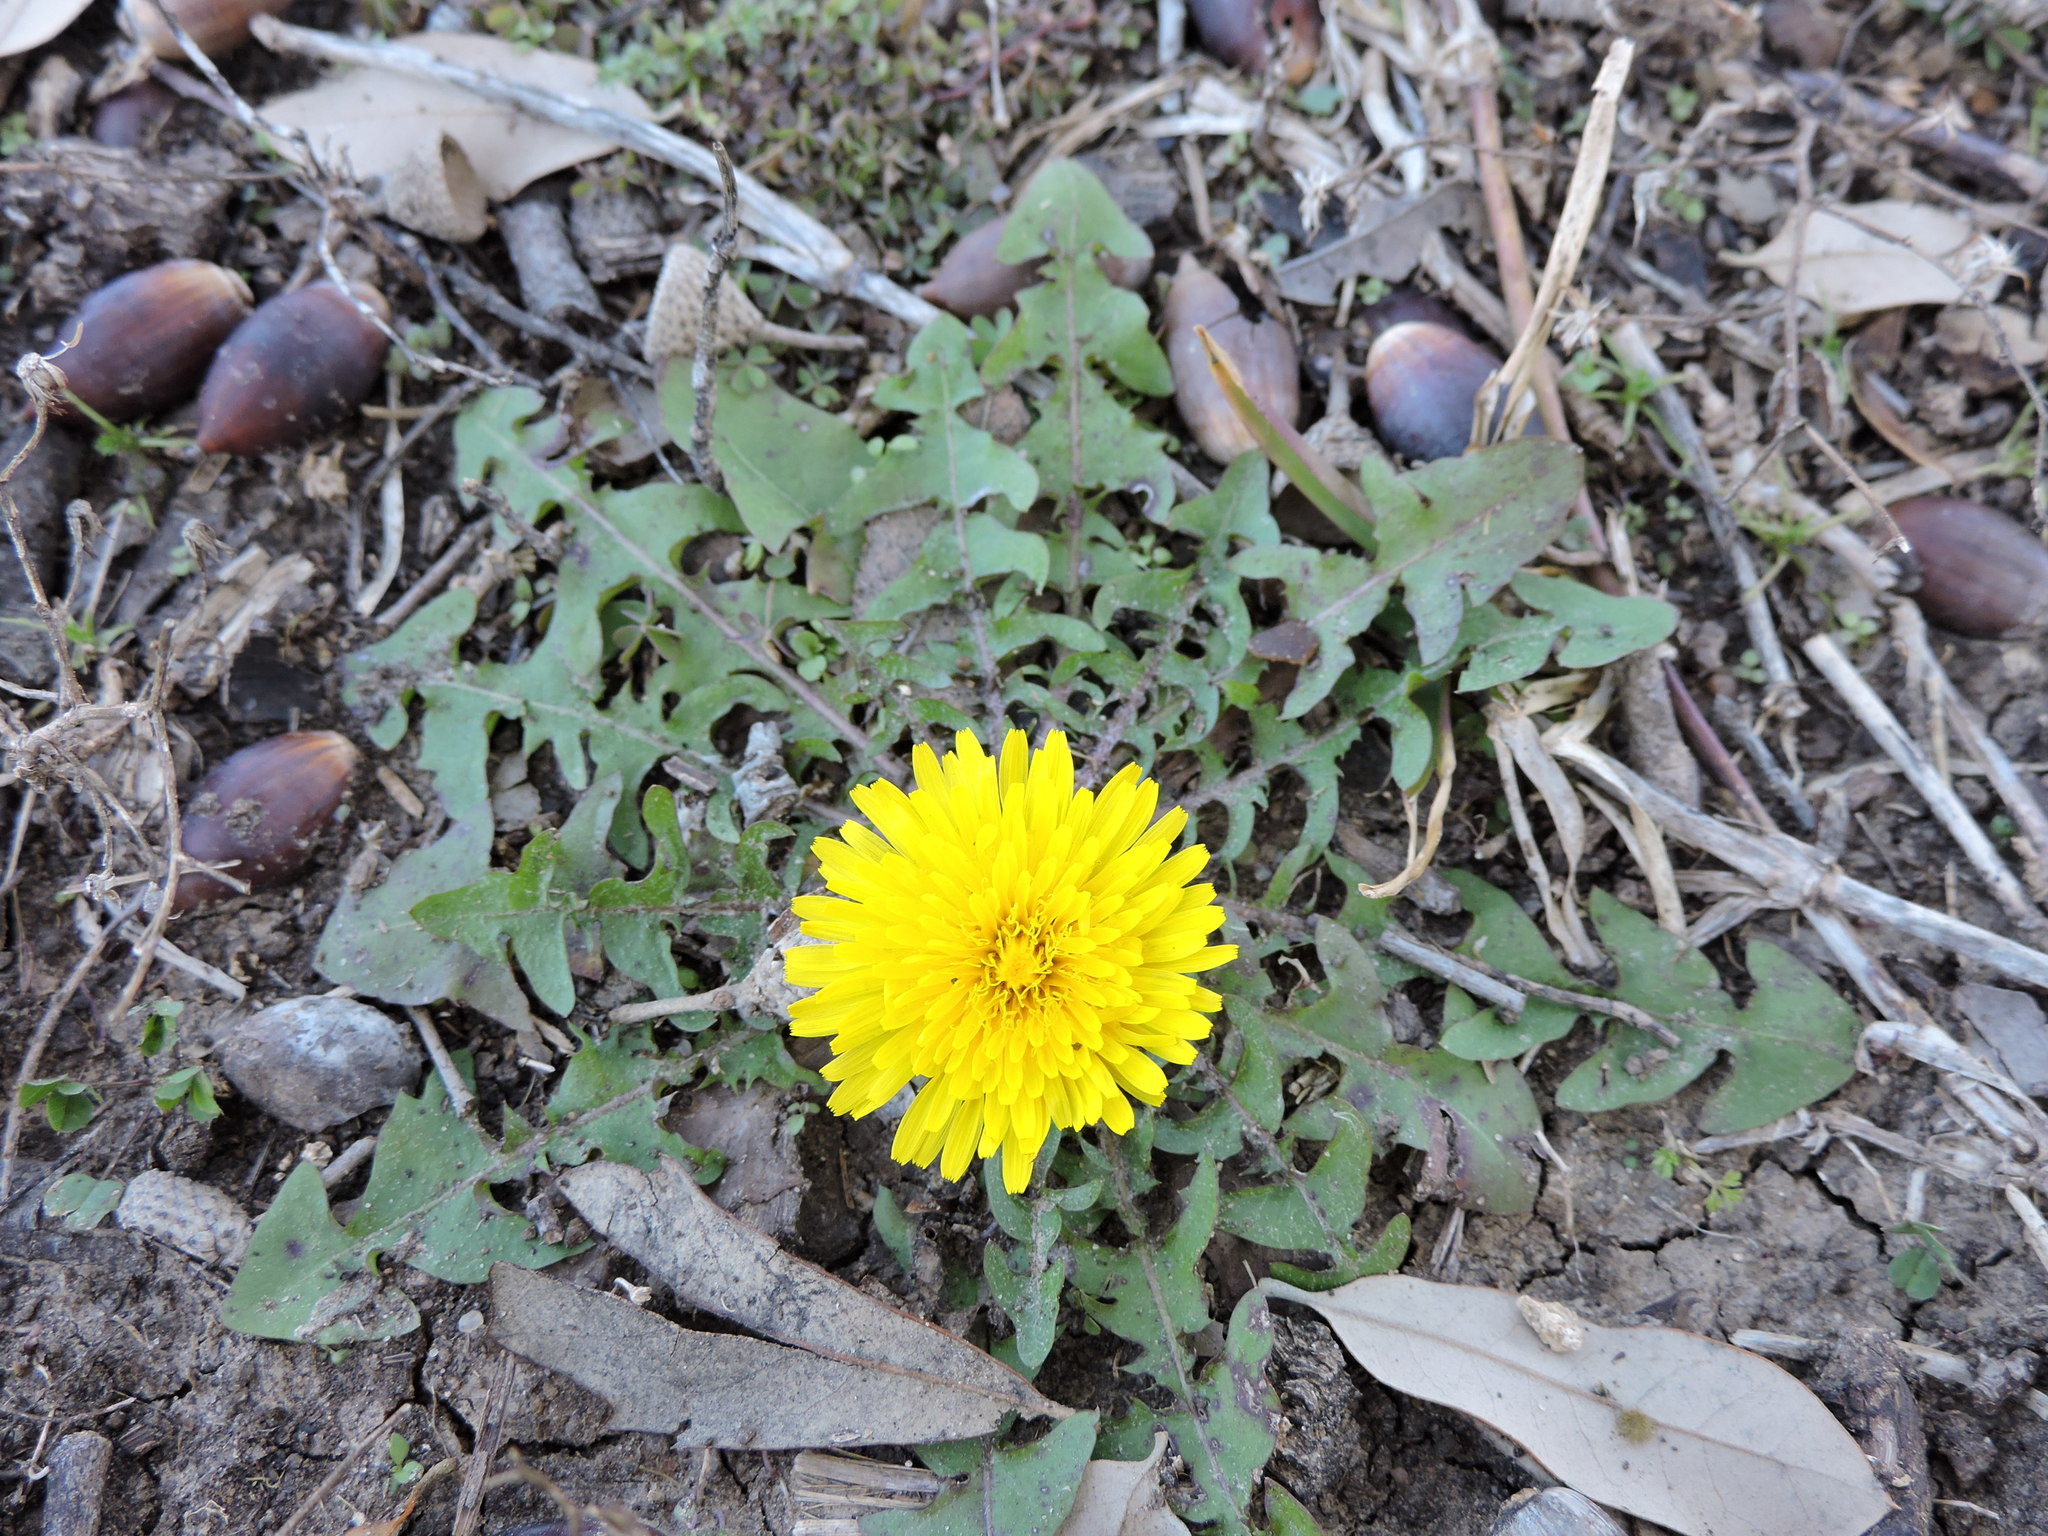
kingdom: Plantae
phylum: Tracheophyta
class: Magnoliopsida
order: Asterales
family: Asteraceae
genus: Taraxacum
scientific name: Taraxacum officinale
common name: Common dandelion
